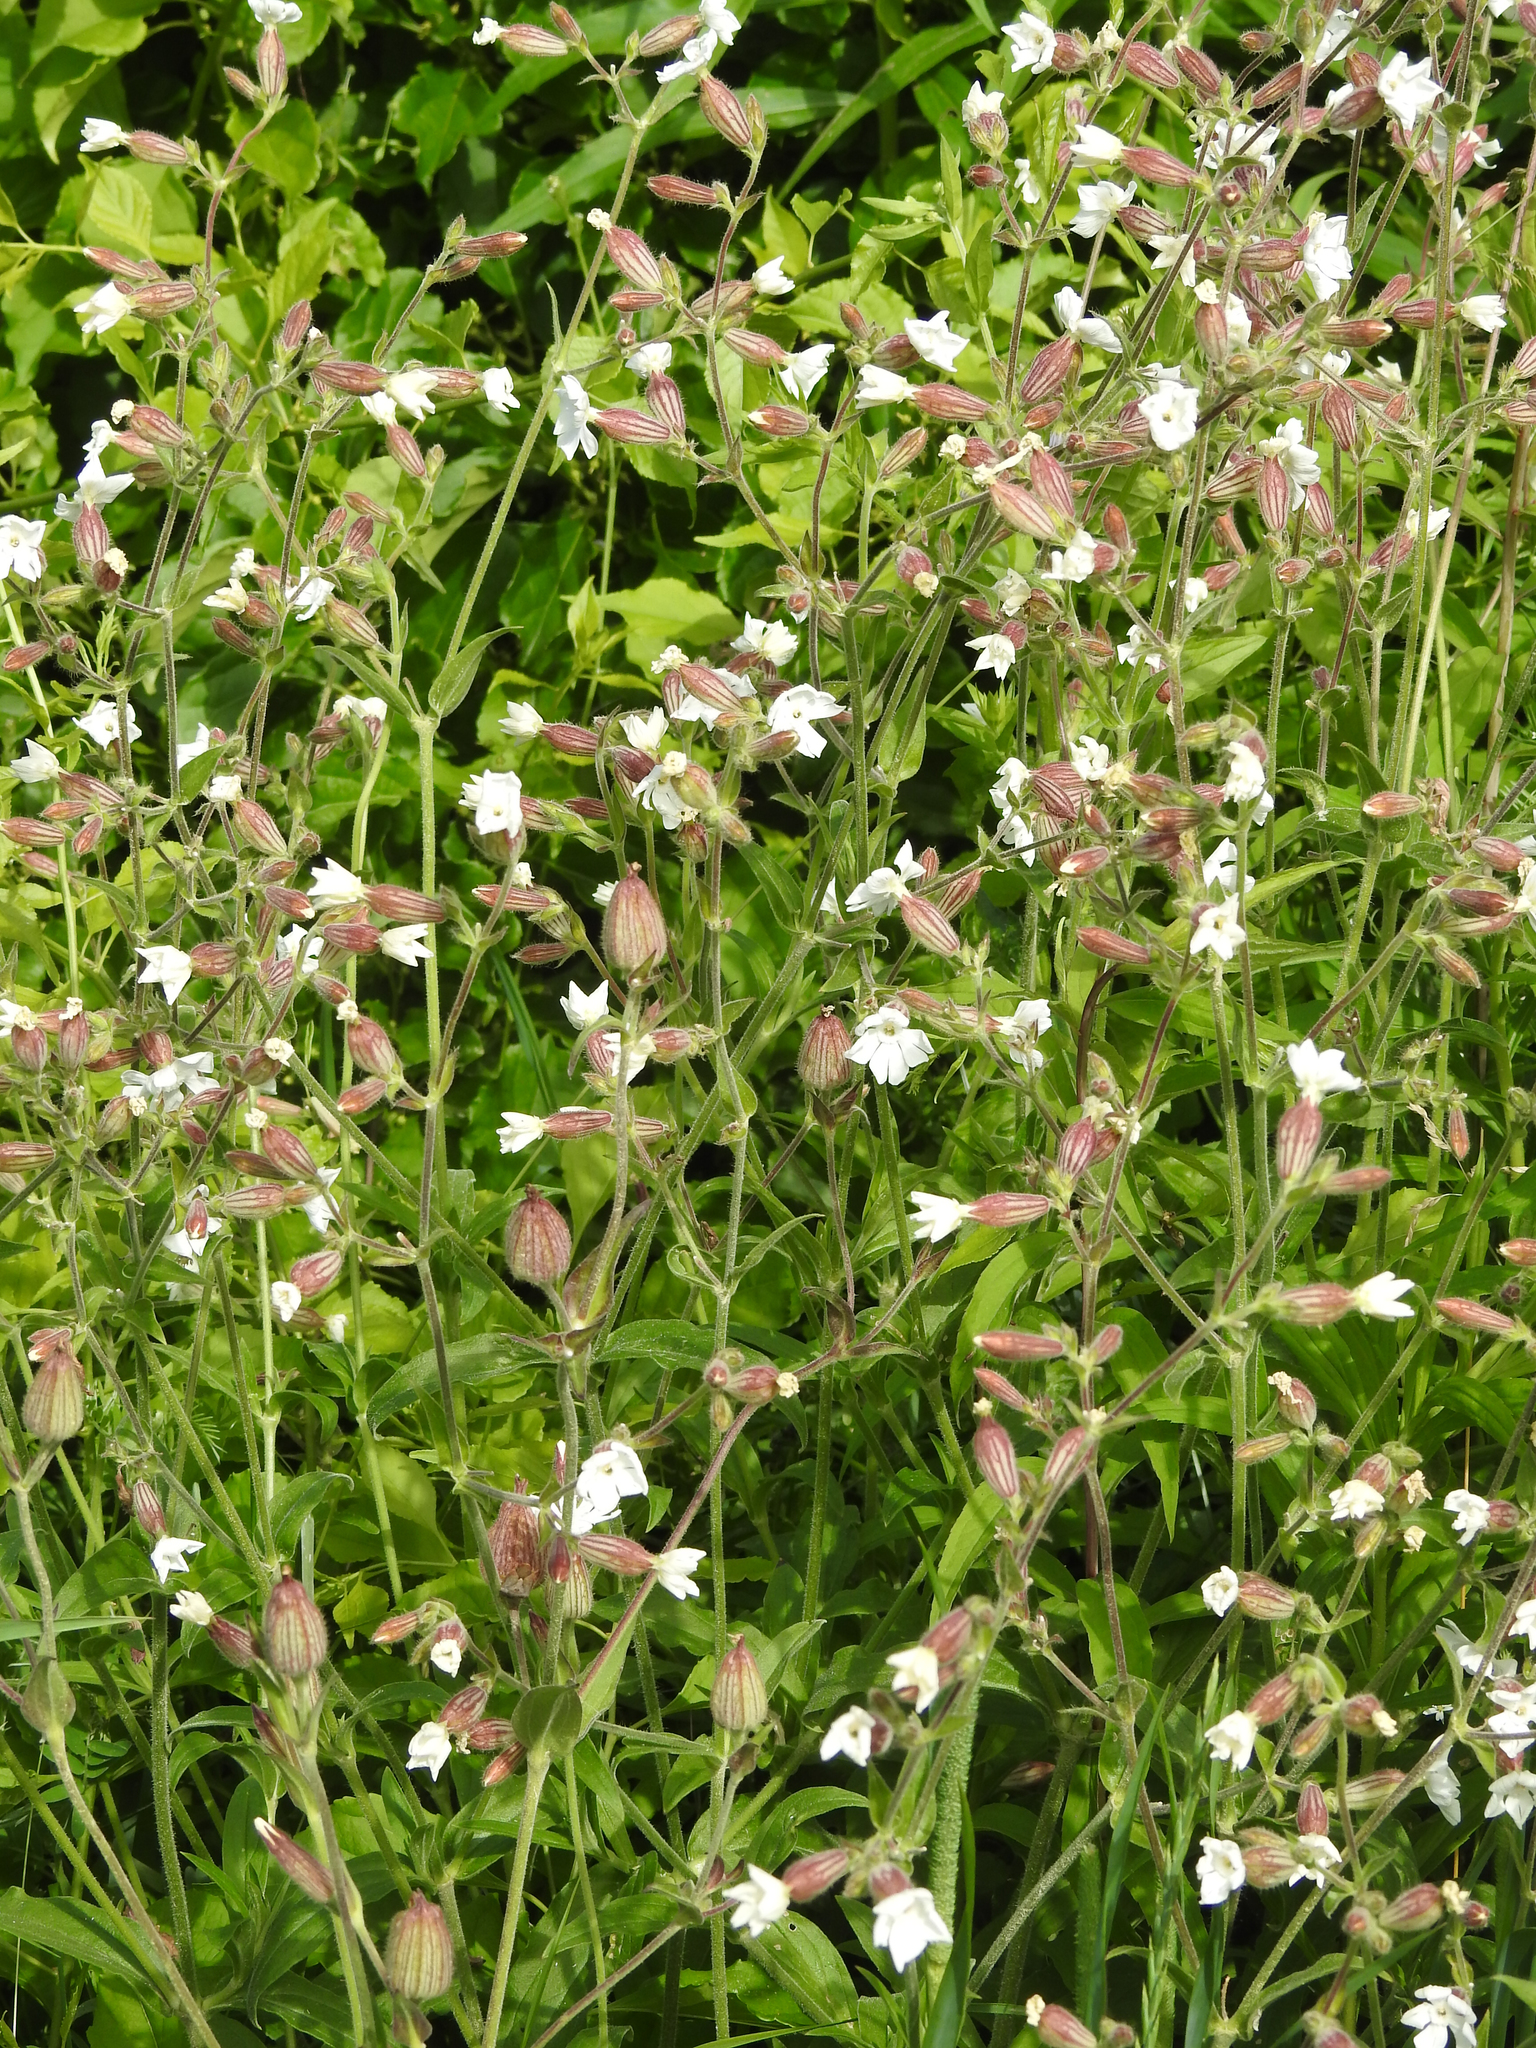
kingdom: Plantae
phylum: Tracheophyta
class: Magnoliopsida
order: Caryophyllales
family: Caryophyllaceae
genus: Silene
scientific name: Silene latifolia
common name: White campion
